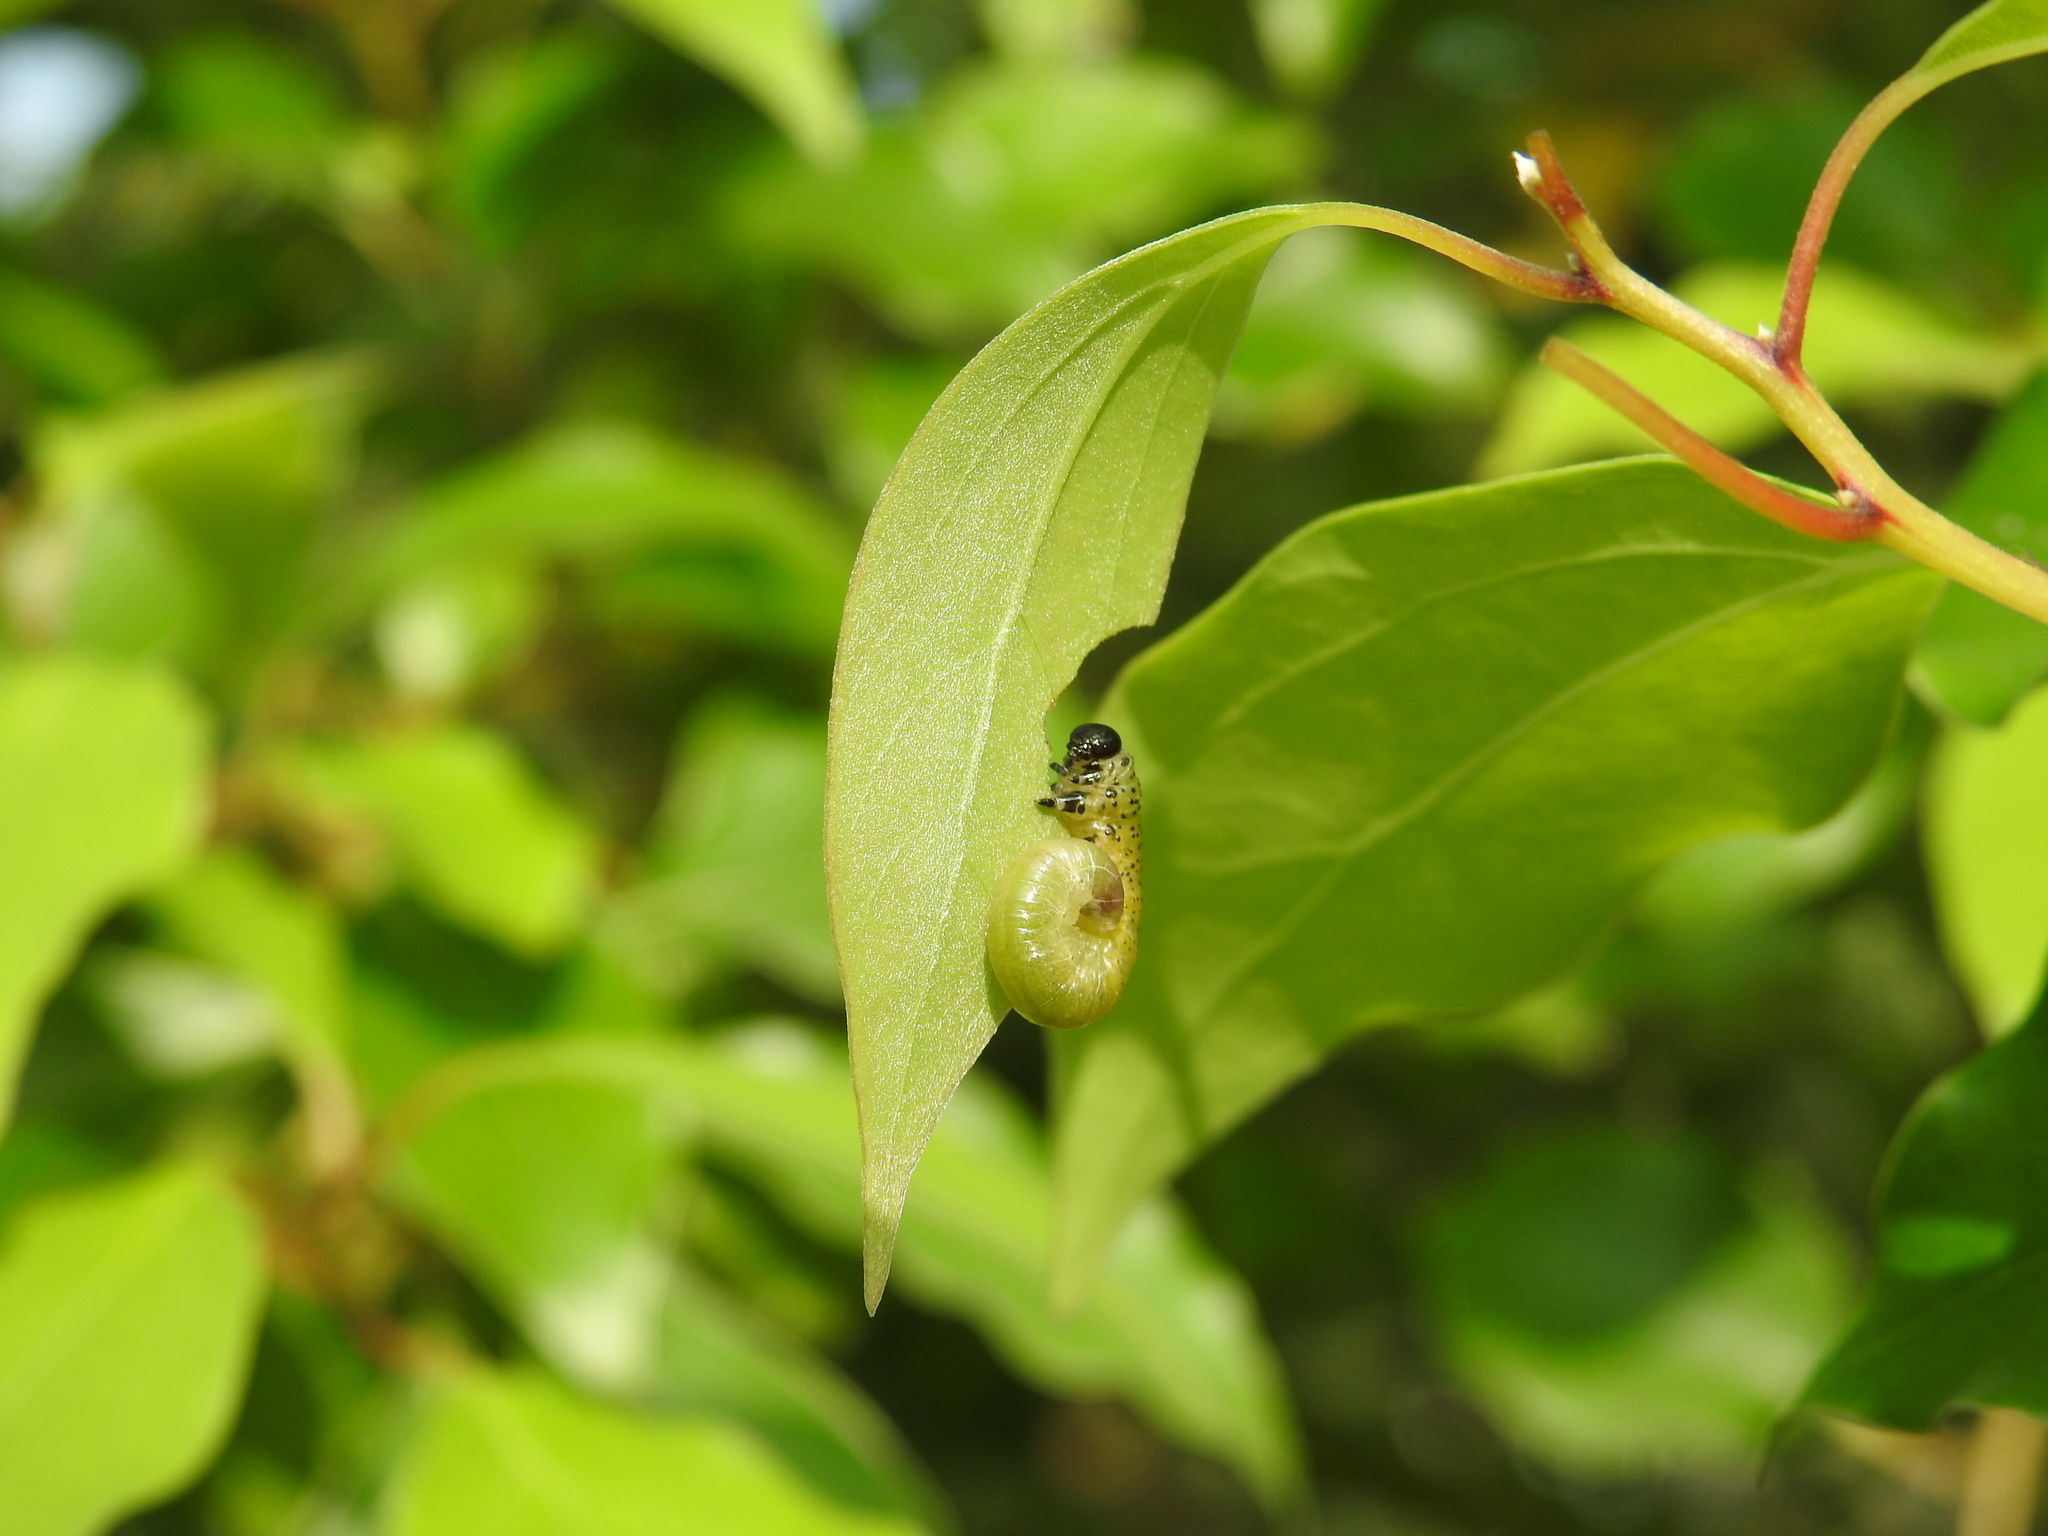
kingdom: Animalia
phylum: Arthropoda
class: Insecta
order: Hymenoptera
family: Tenthredinidae
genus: Moricella
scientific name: Moricella rufonota
